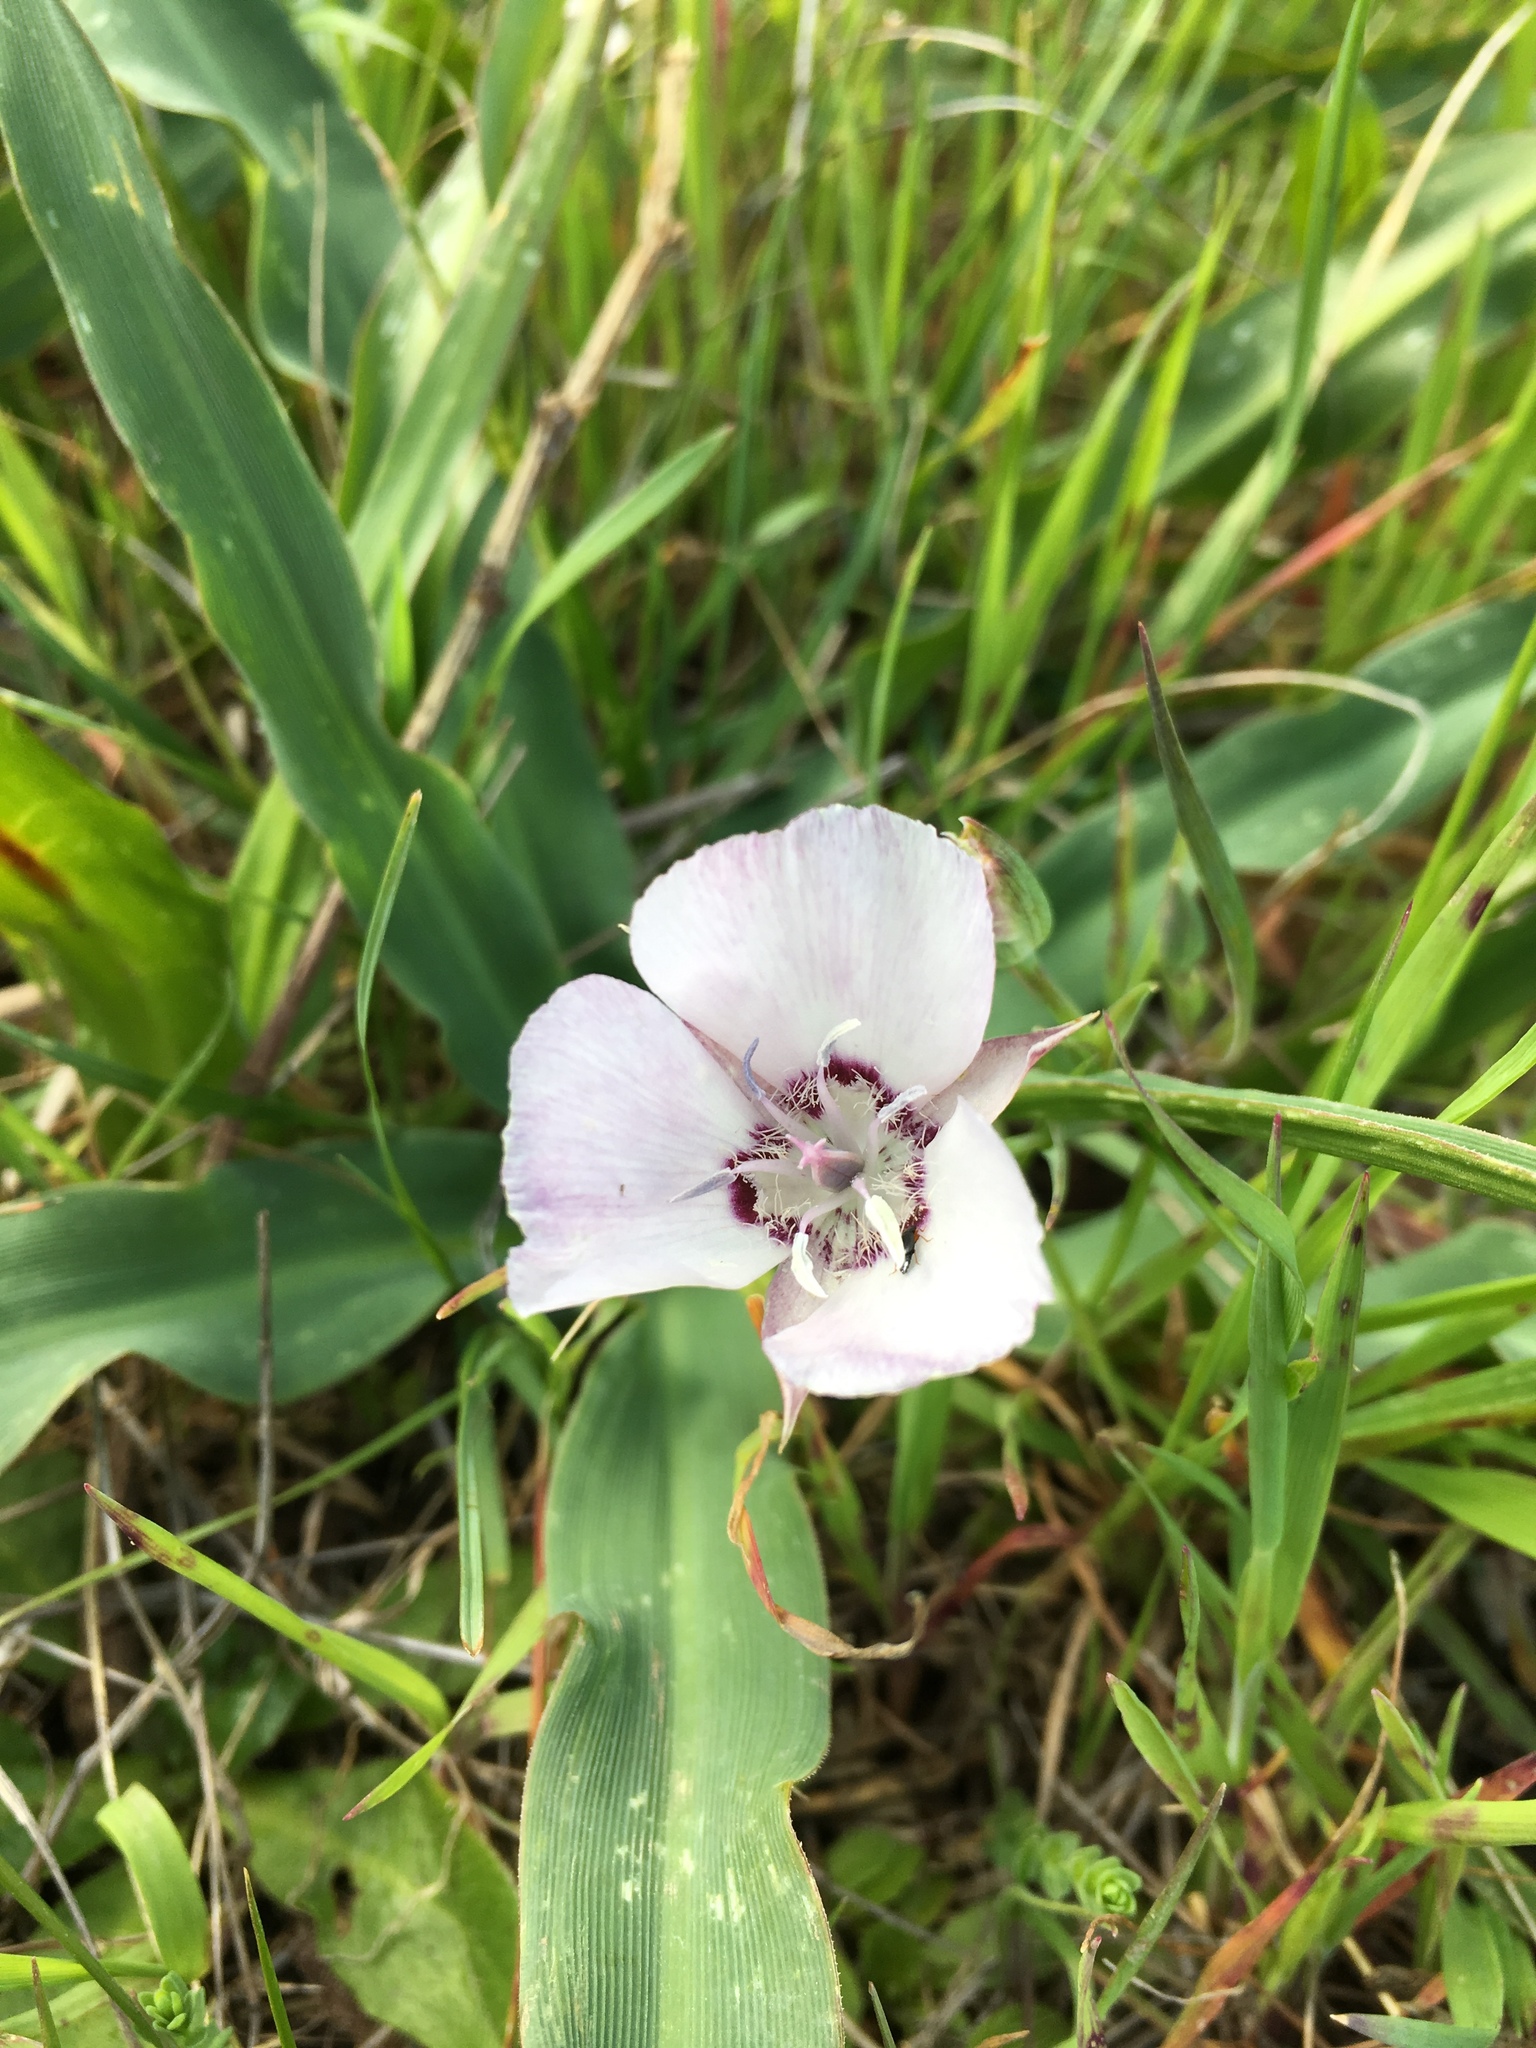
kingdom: Plantae
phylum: Tracheophyta
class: Liliopsida
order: Liliales
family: Liliaceae
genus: Calochortus
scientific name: Calochortus umbellatus
